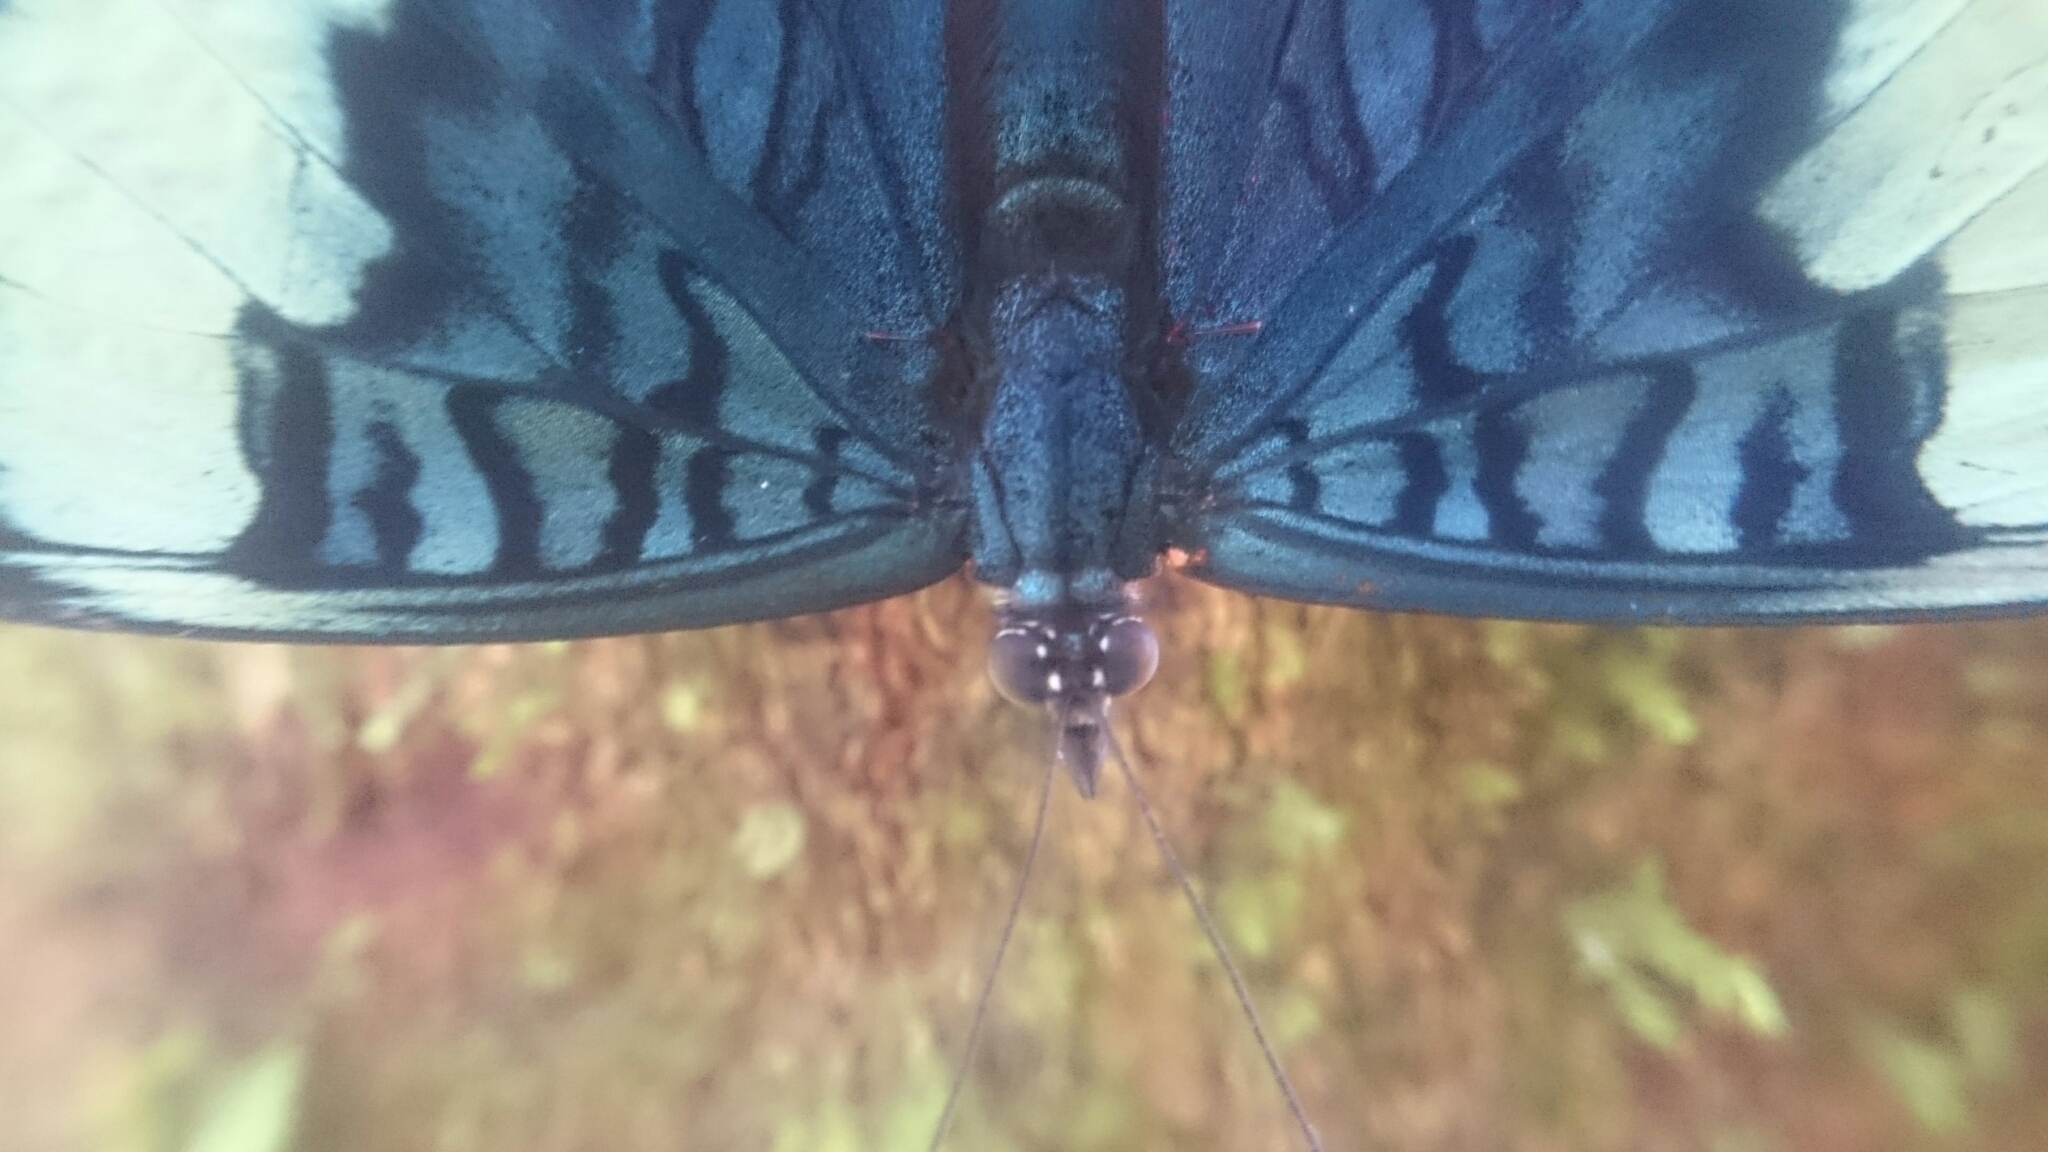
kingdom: Animalia
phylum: Arthropoda
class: Insecta
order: Lepidoptera
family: Nymphalidae
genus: Panacea
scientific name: Panacea prola
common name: Red flasher
